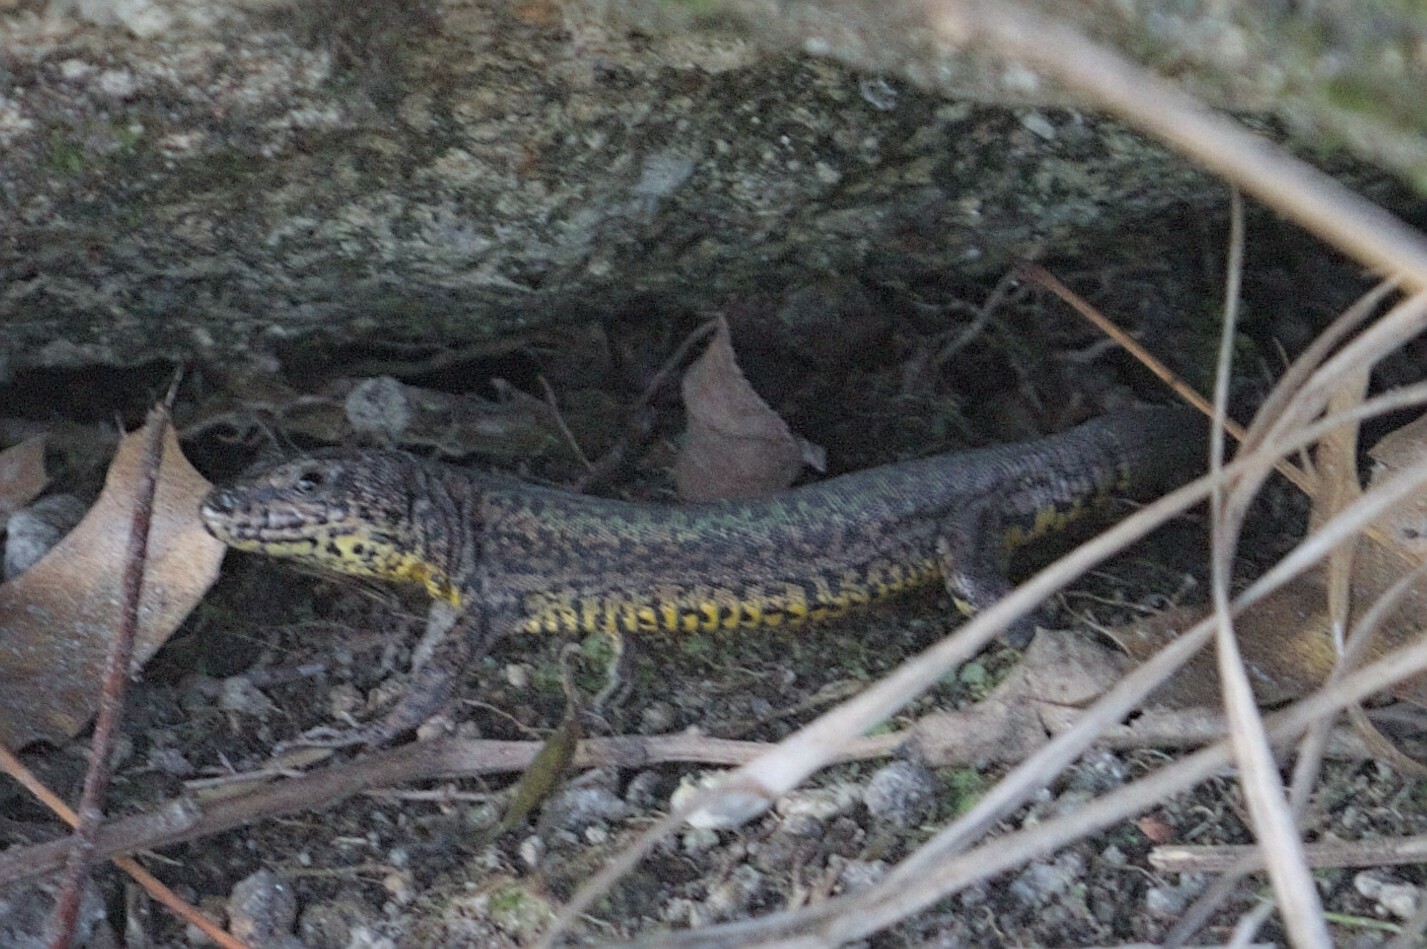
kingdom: Animalia
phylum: Chordata
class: Squamata
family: Lacertidae
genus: Podarcis
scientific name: Podarcis bocagei
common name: Bocage's wall lizard
